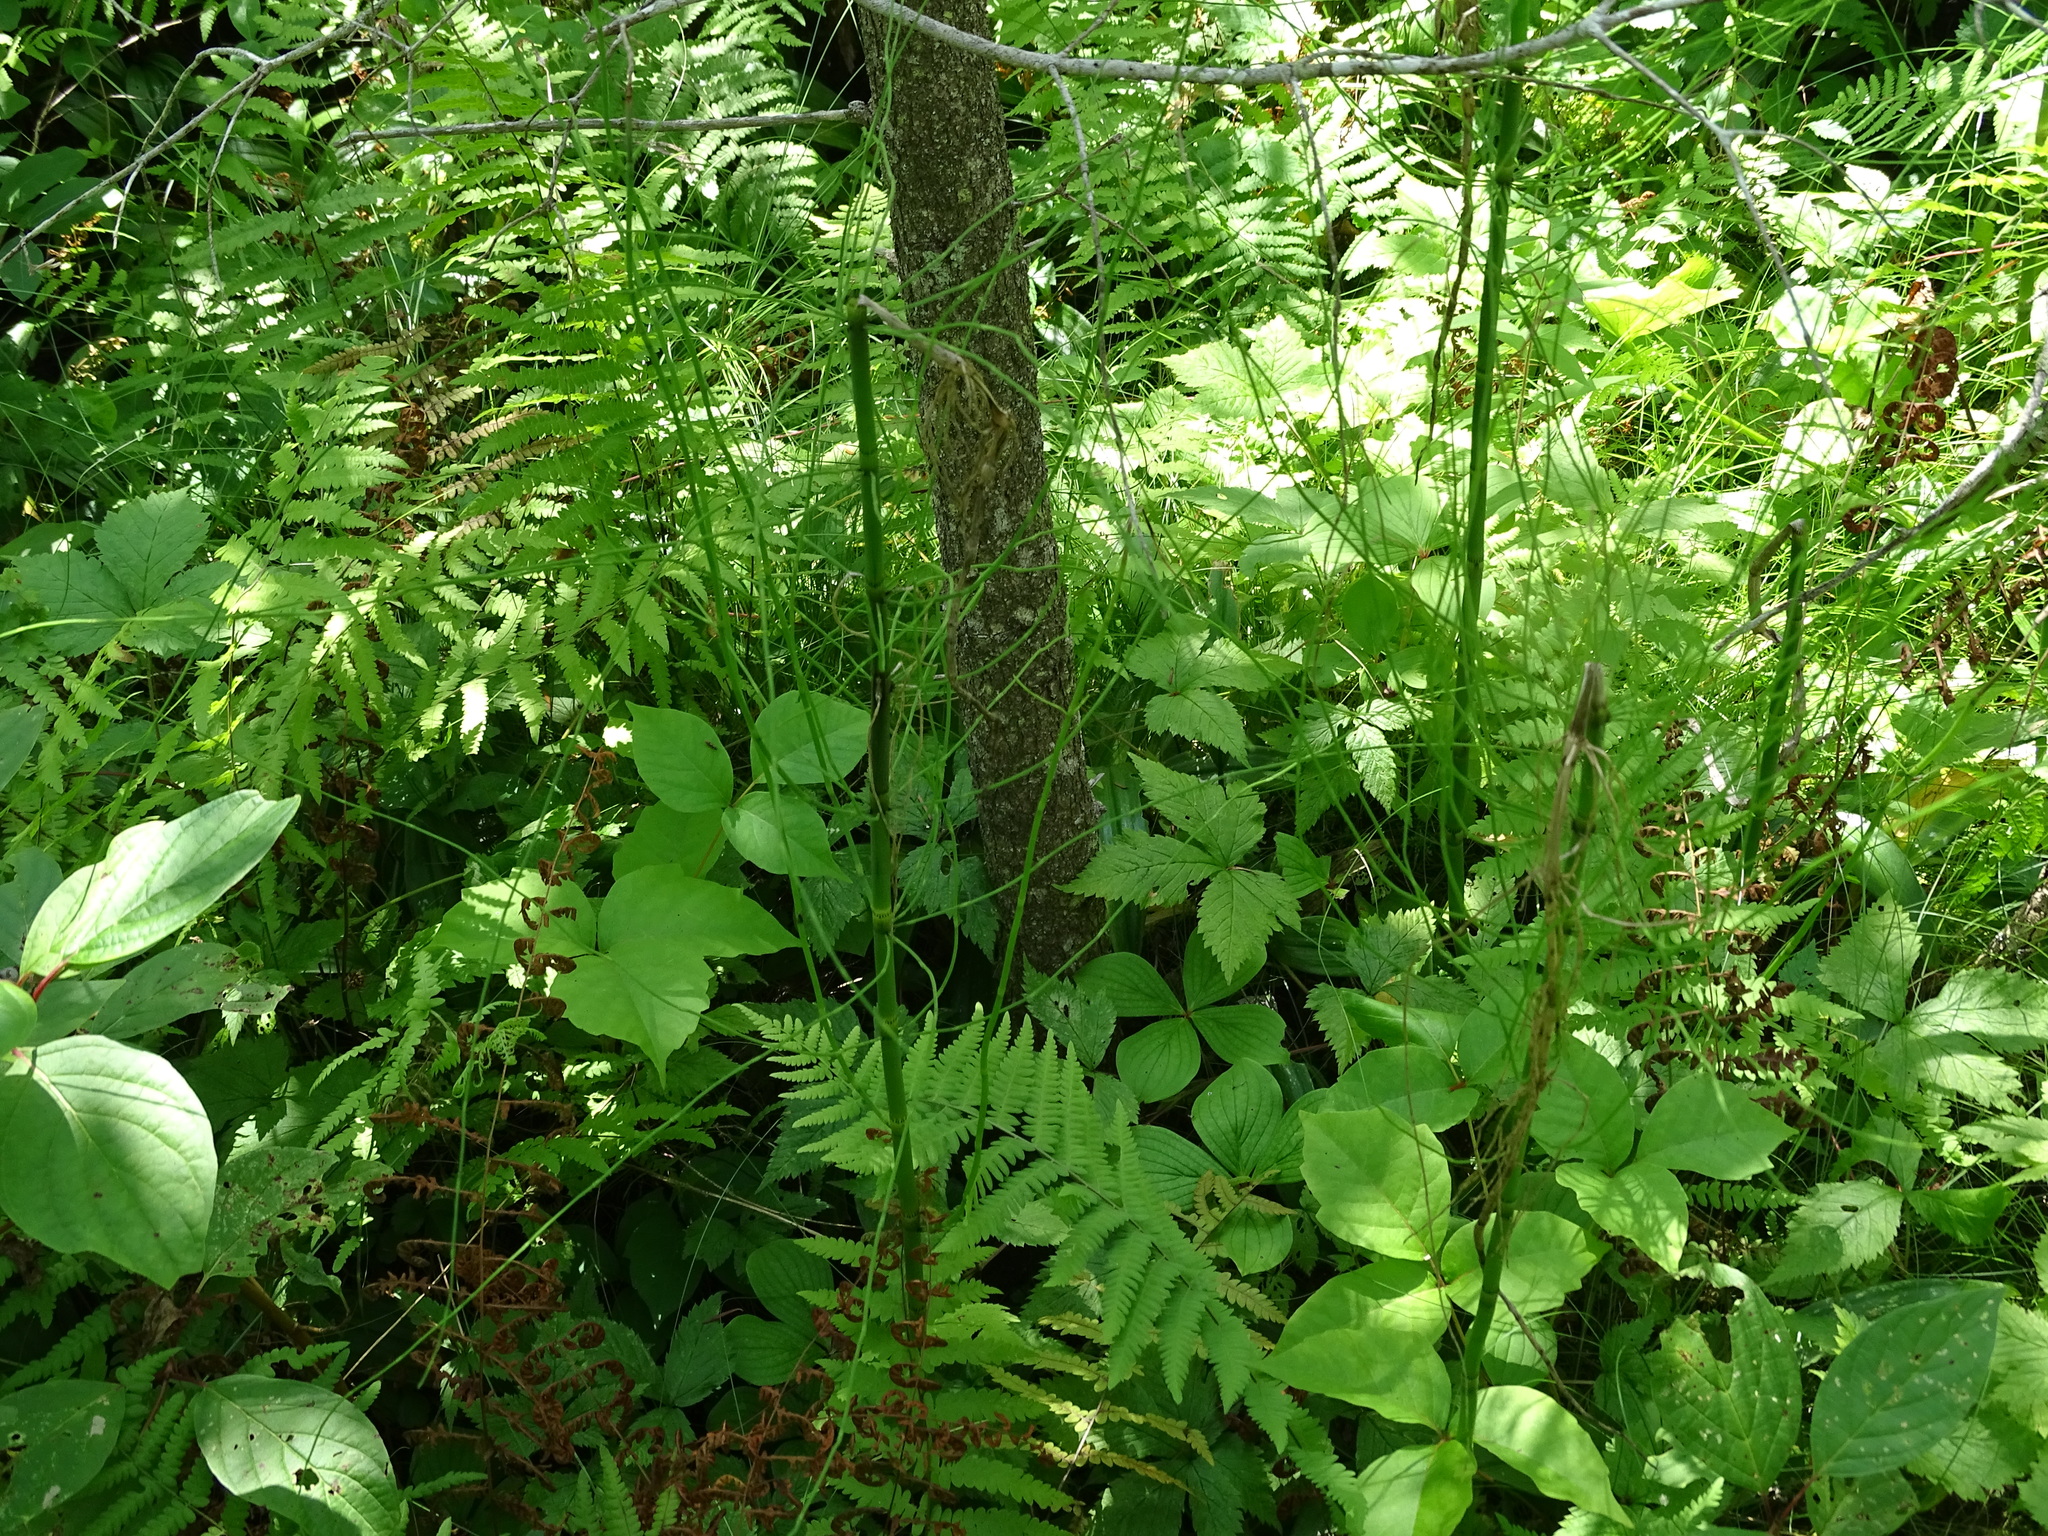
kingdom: Plantae
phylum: Tracheophyta
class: Polypodiopsida
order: Equisetales
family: Equisetaceae
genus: Equisetum
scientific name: Equisetum fluviatile
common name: Water horsetail
